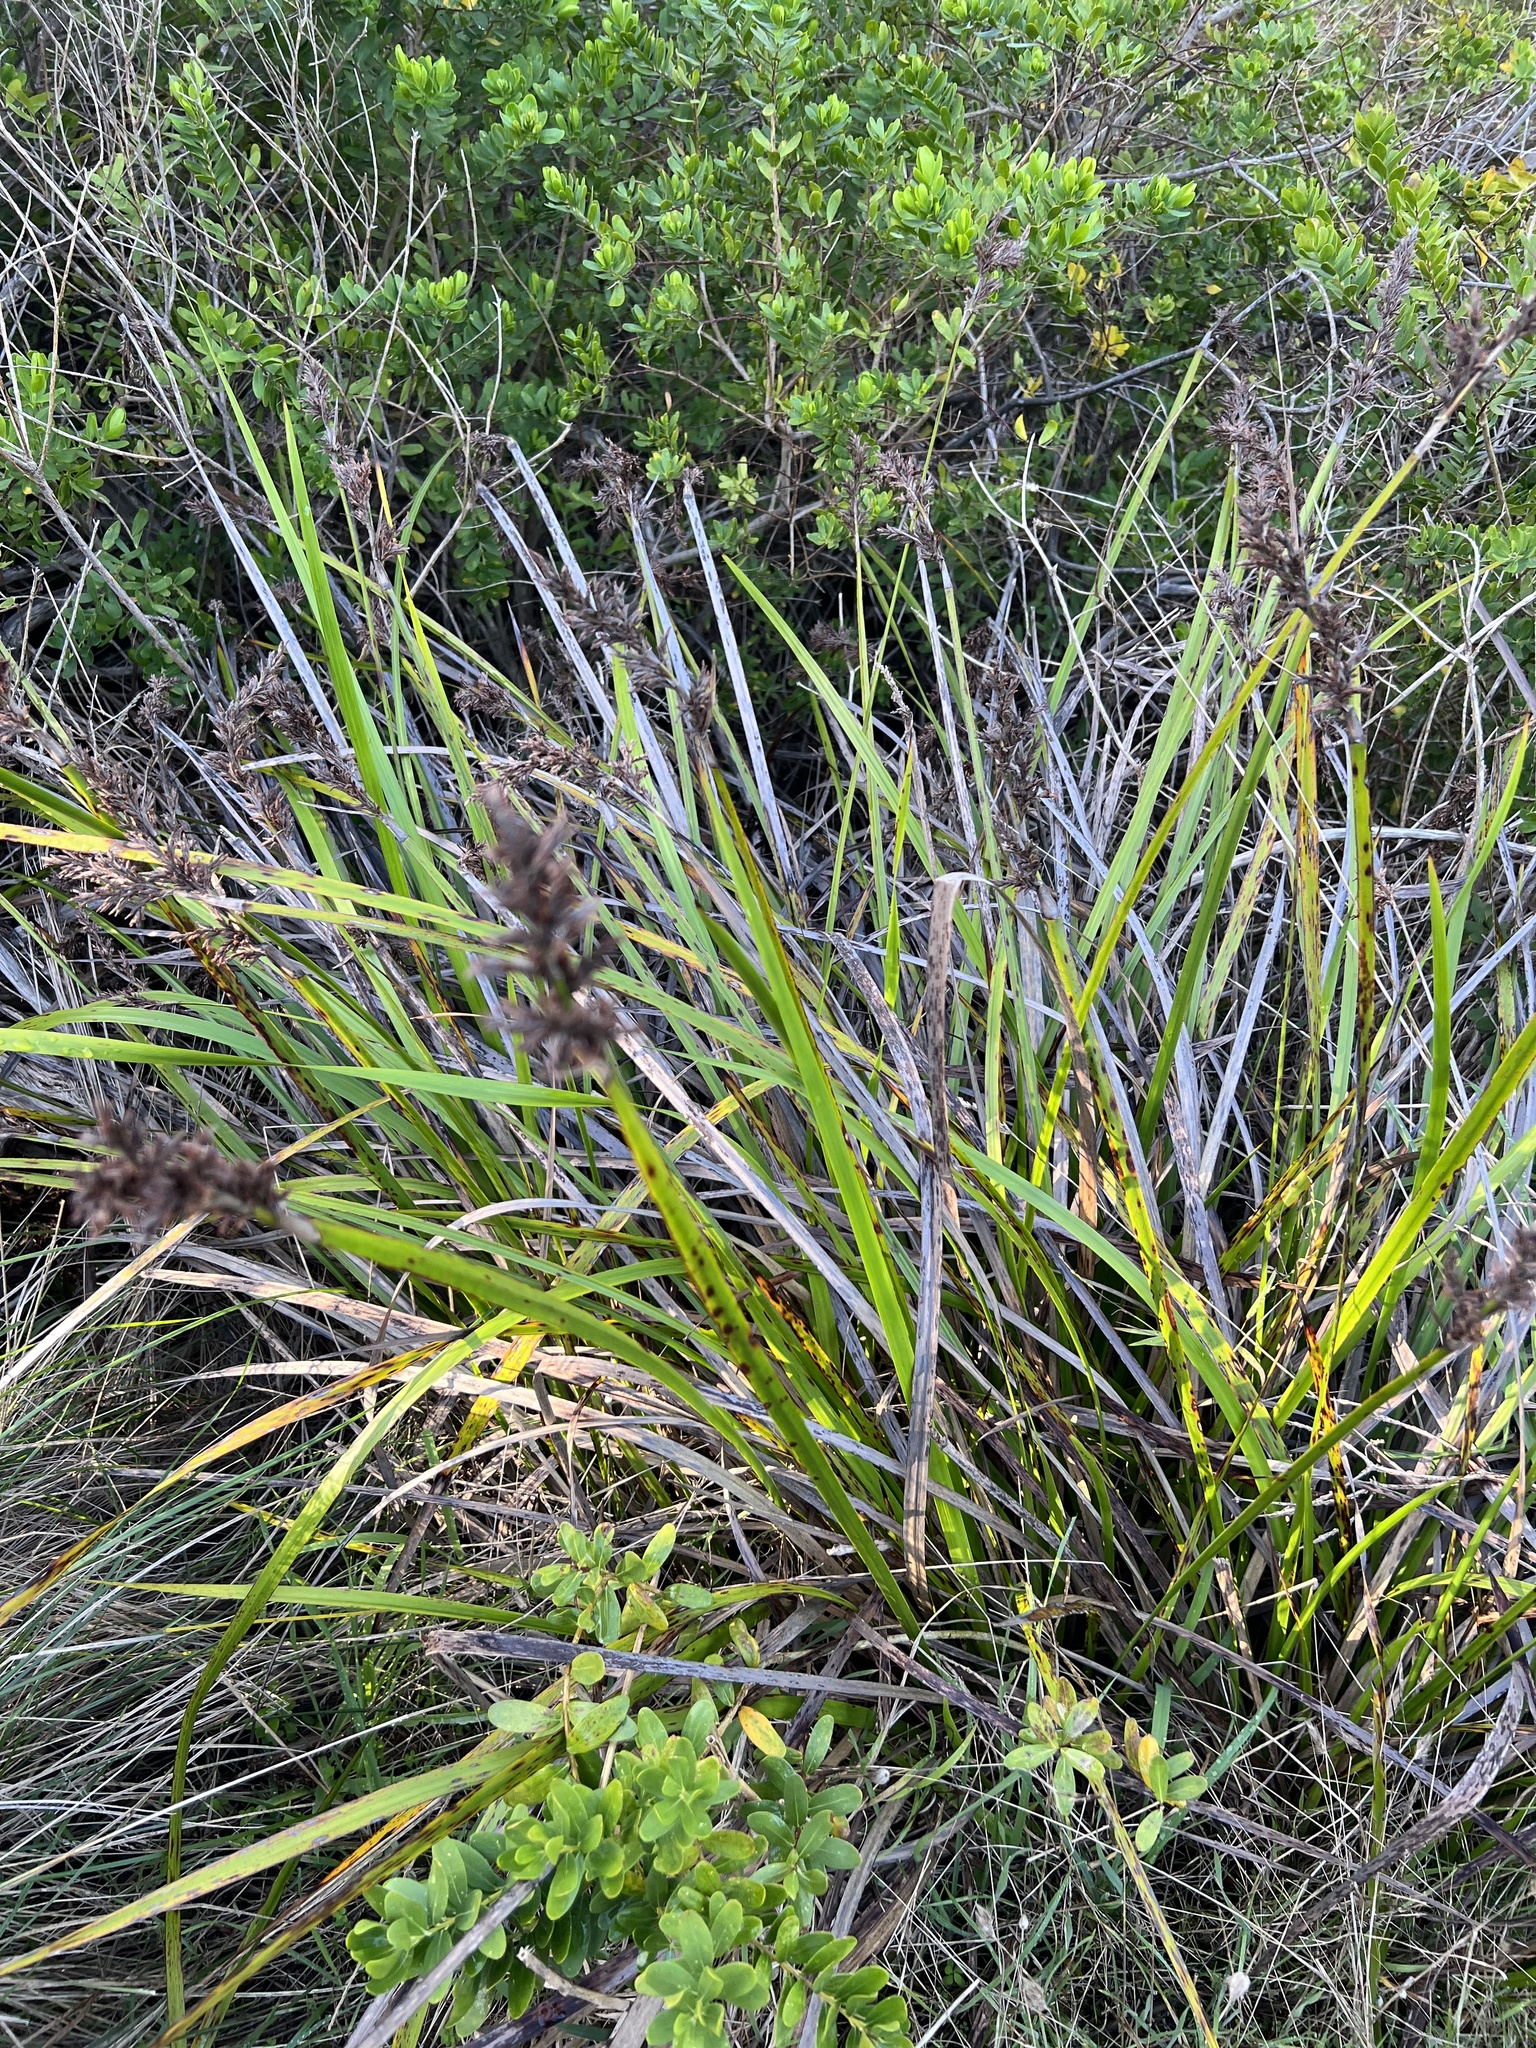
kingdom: Plantae
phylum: Tracheophyta
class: Liliopsida
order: Poales
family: Cyperaceae
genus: Lepidosperma
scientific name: Lepidosperma gladiatum
